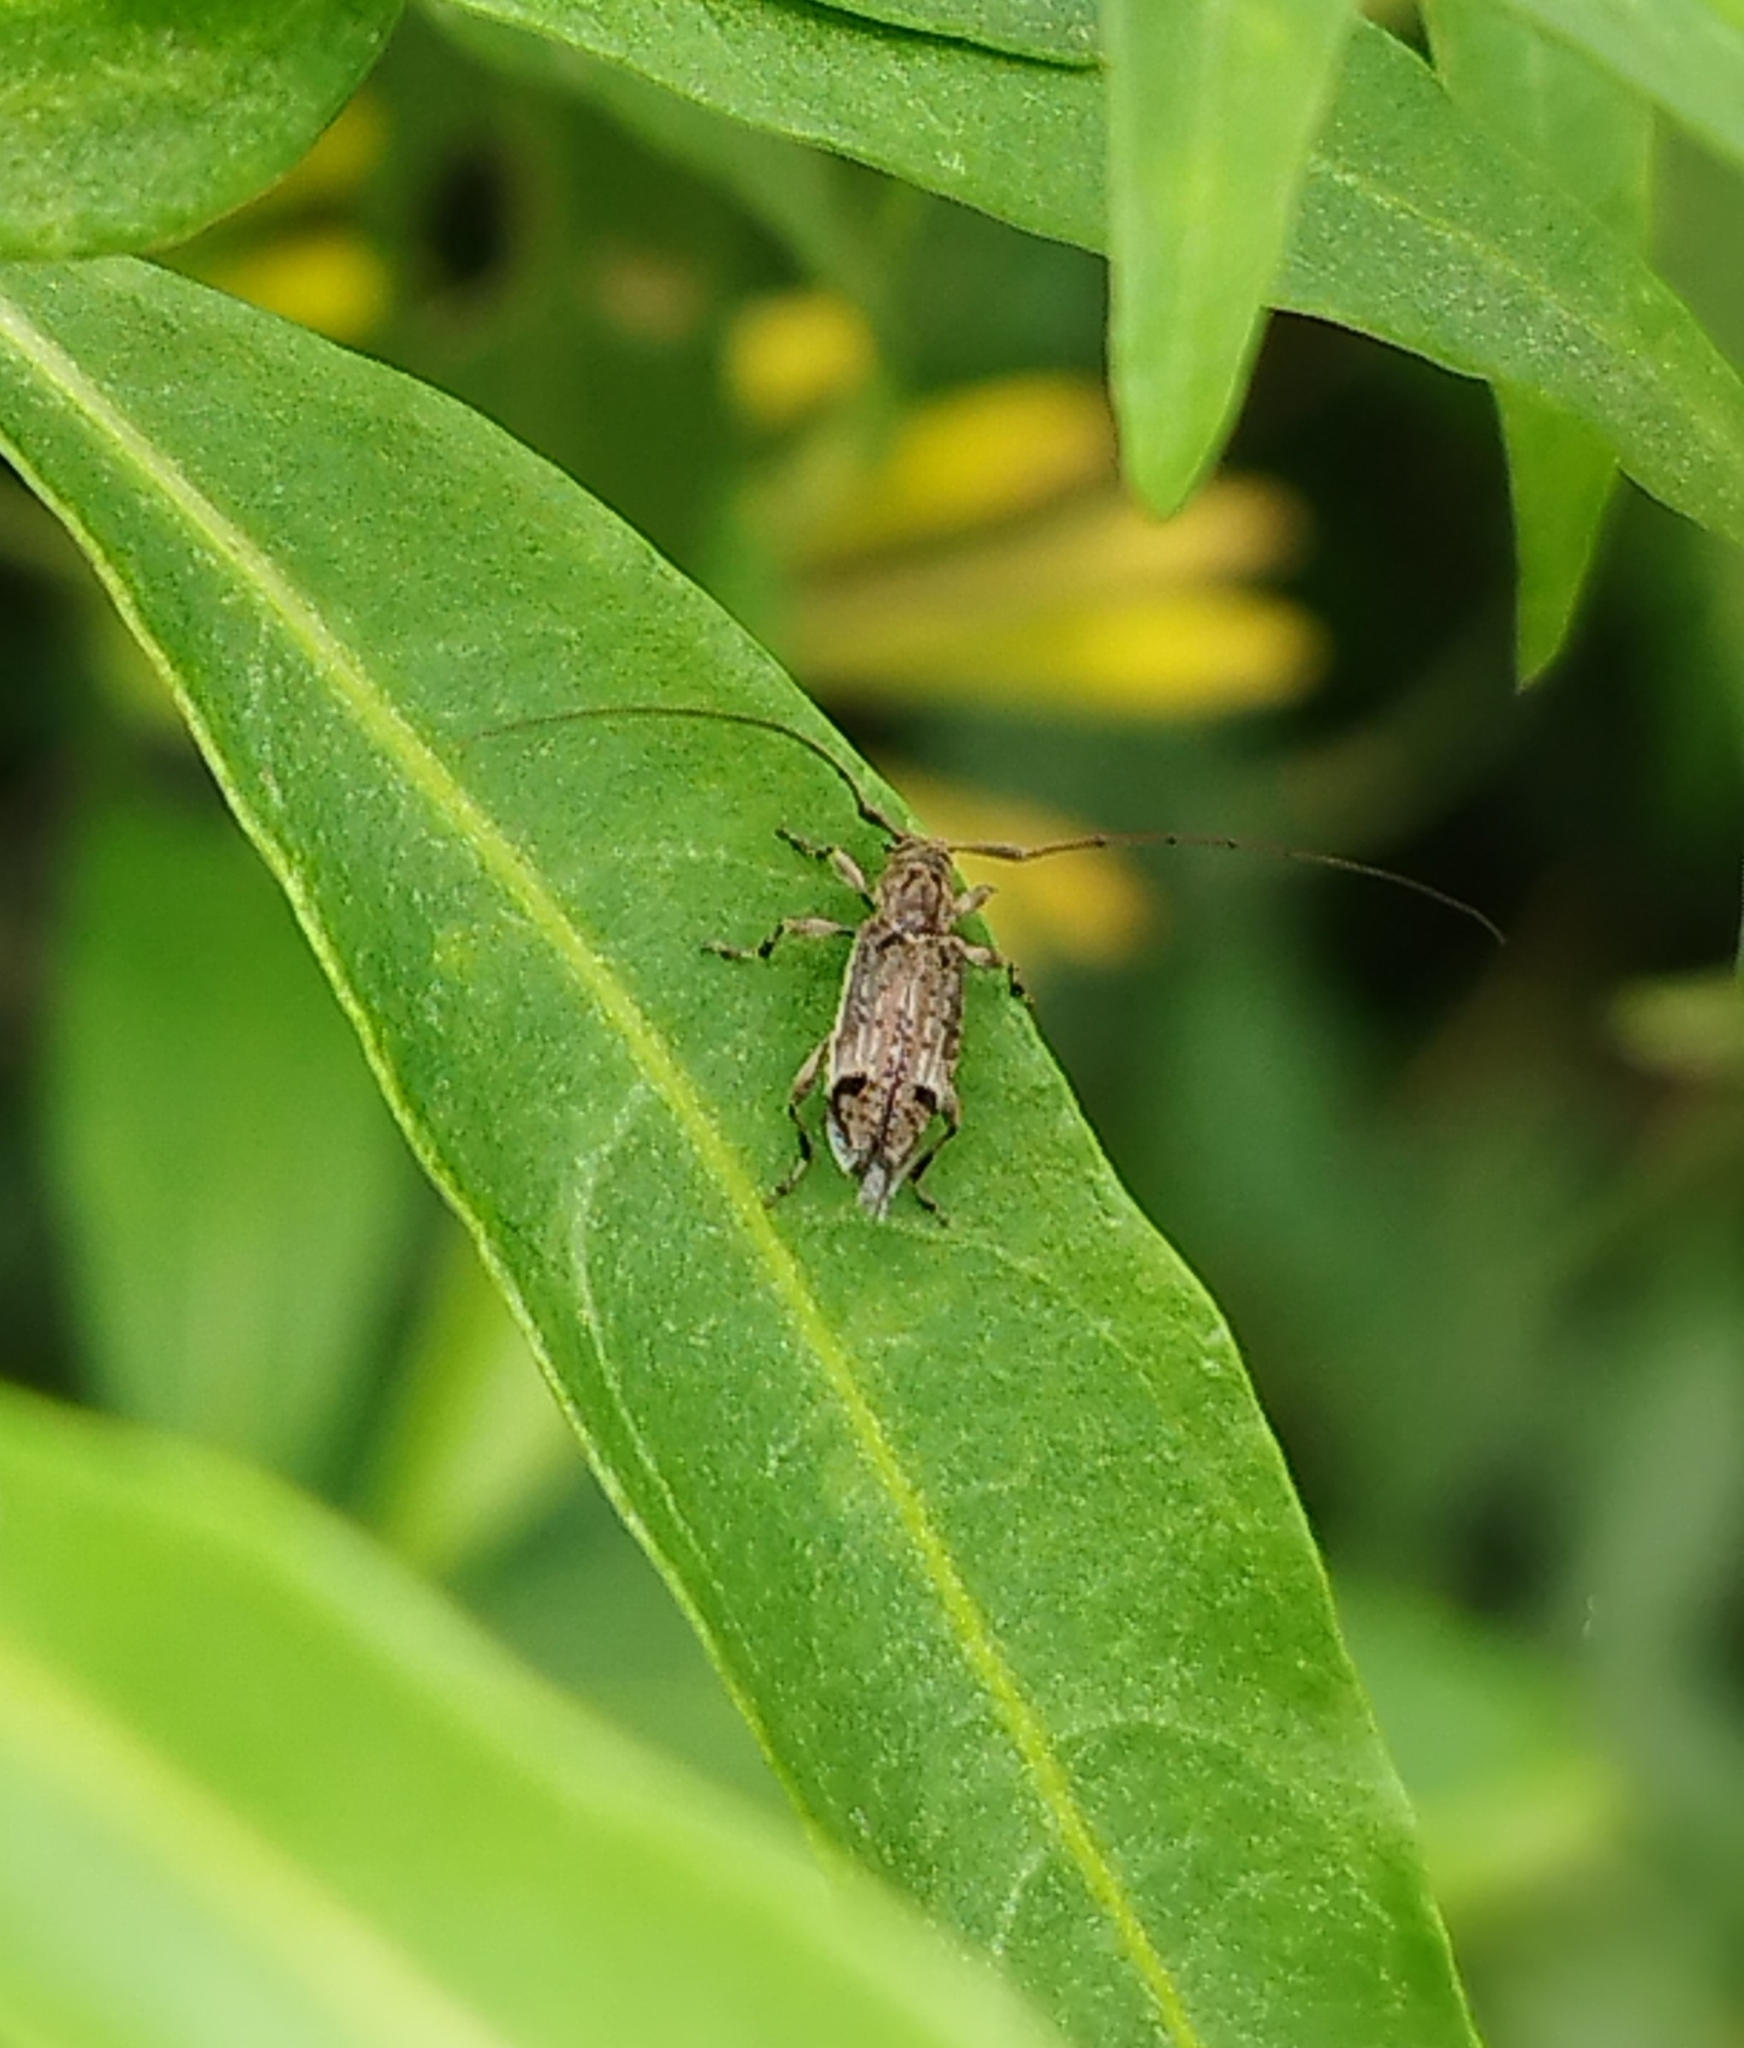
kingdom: Animalia
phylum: Arthropoda
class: Insecta
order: Coleoptera
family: Cerambycidae
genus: Hyperplatys
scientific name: Hyperplatys argentina
